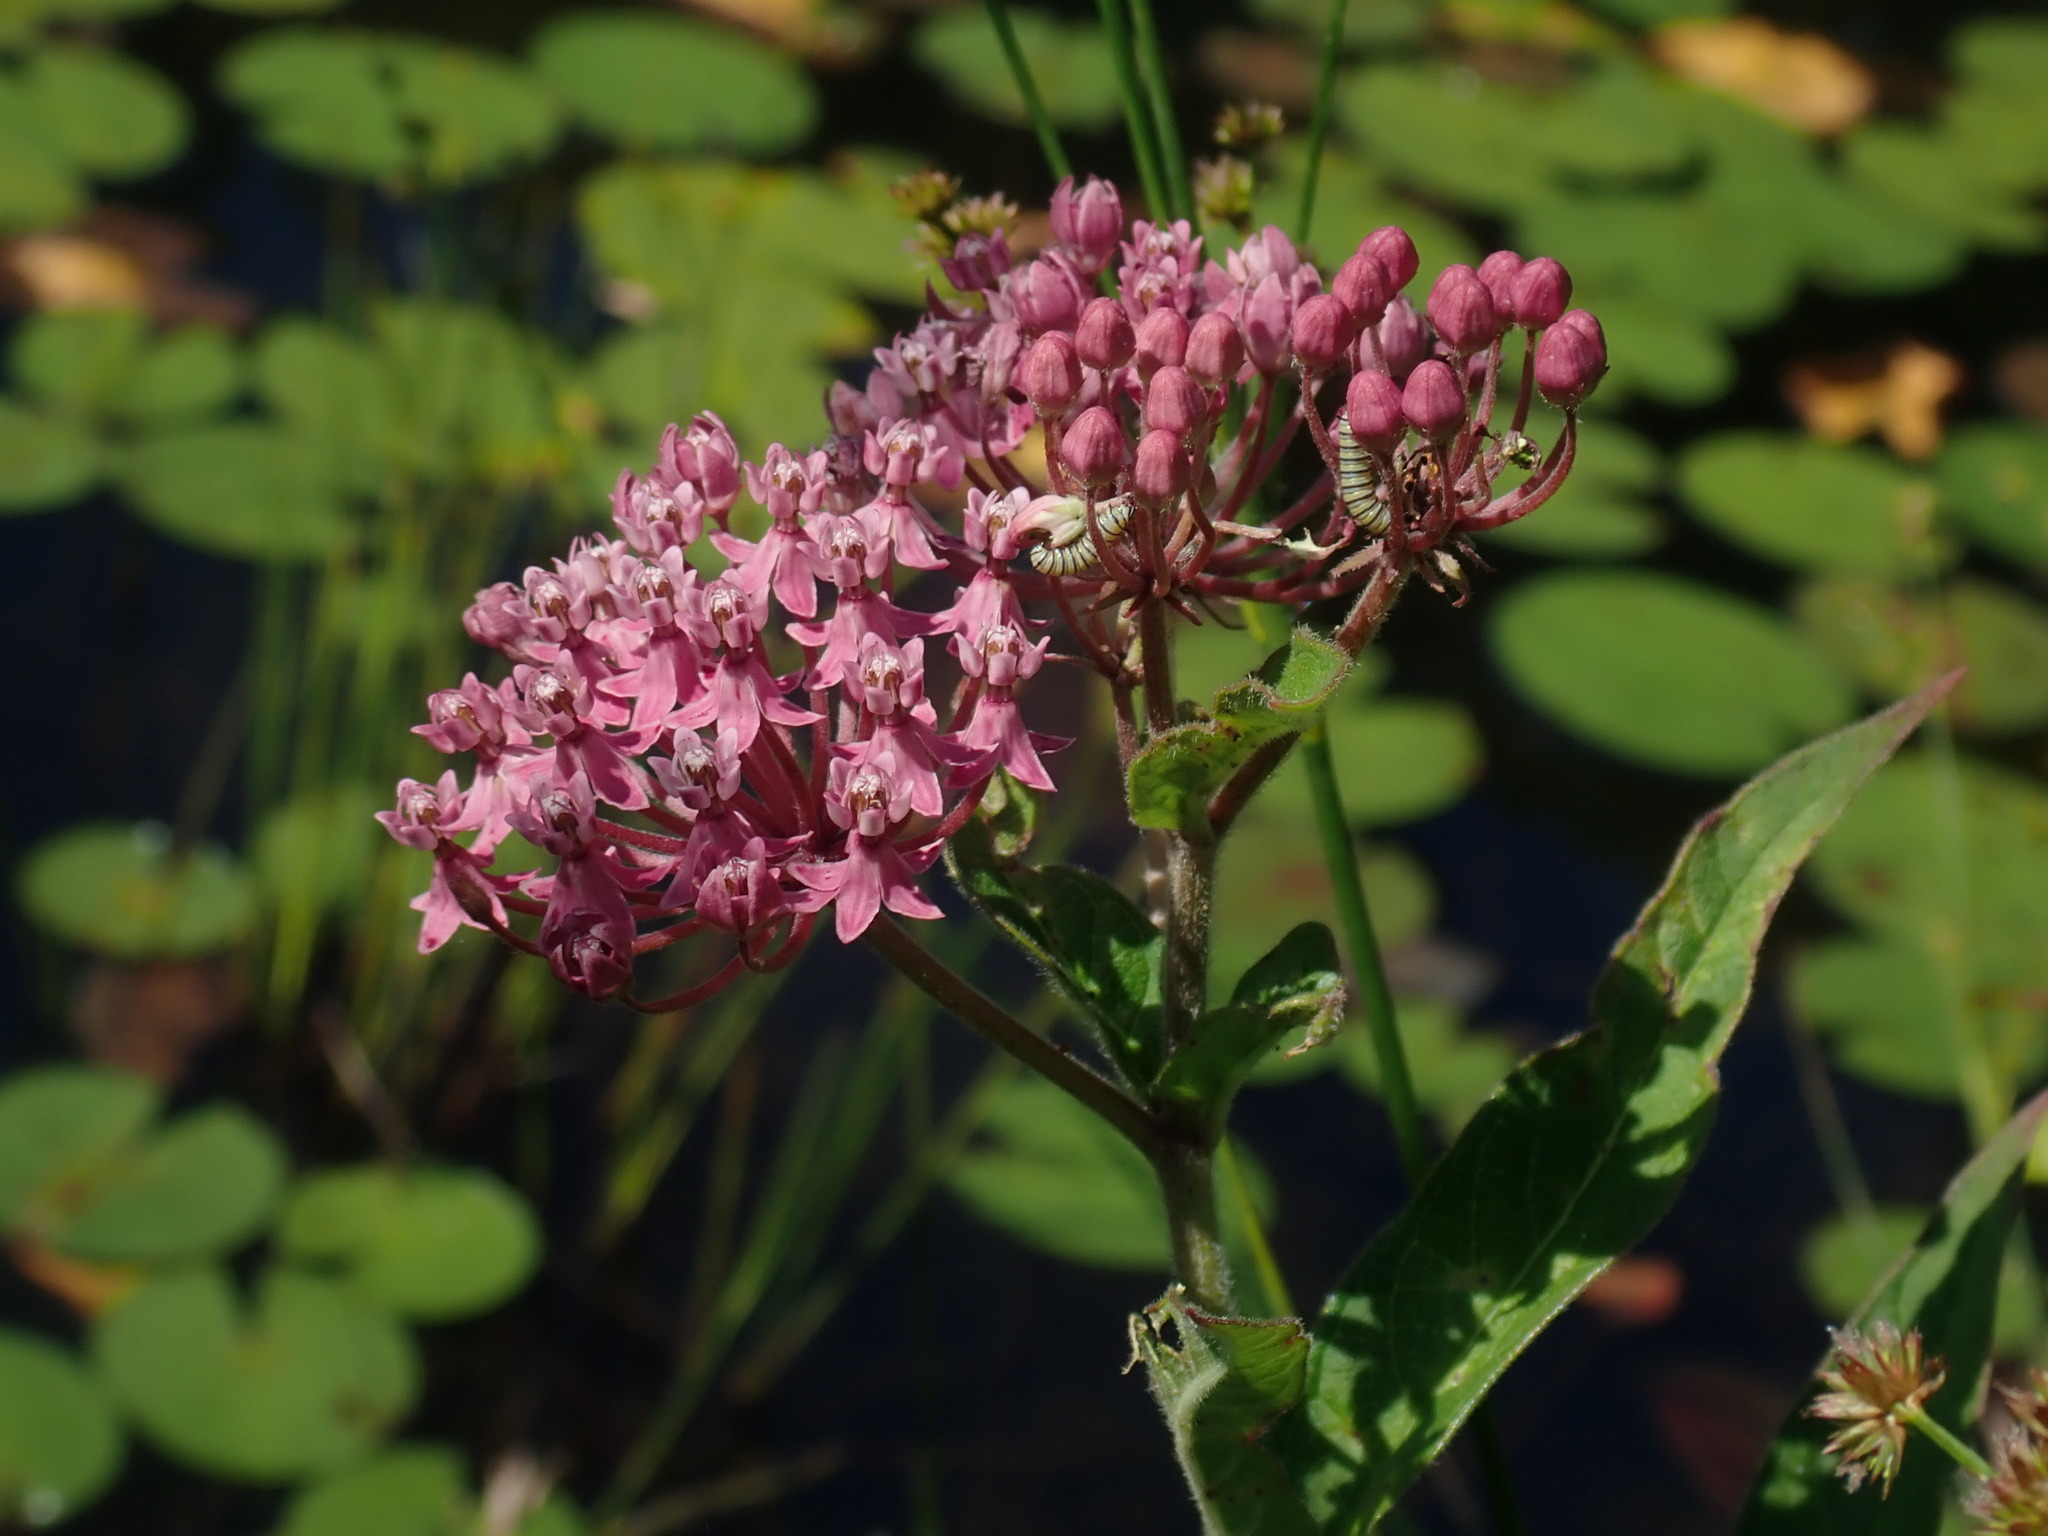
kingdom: Plantae
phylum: Tracheophyta
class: Magnoliopsida
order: Gentianales
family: Apocynaceae
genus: Asclepias
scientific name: Asclepias incarnata
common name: Swamp milkweed
